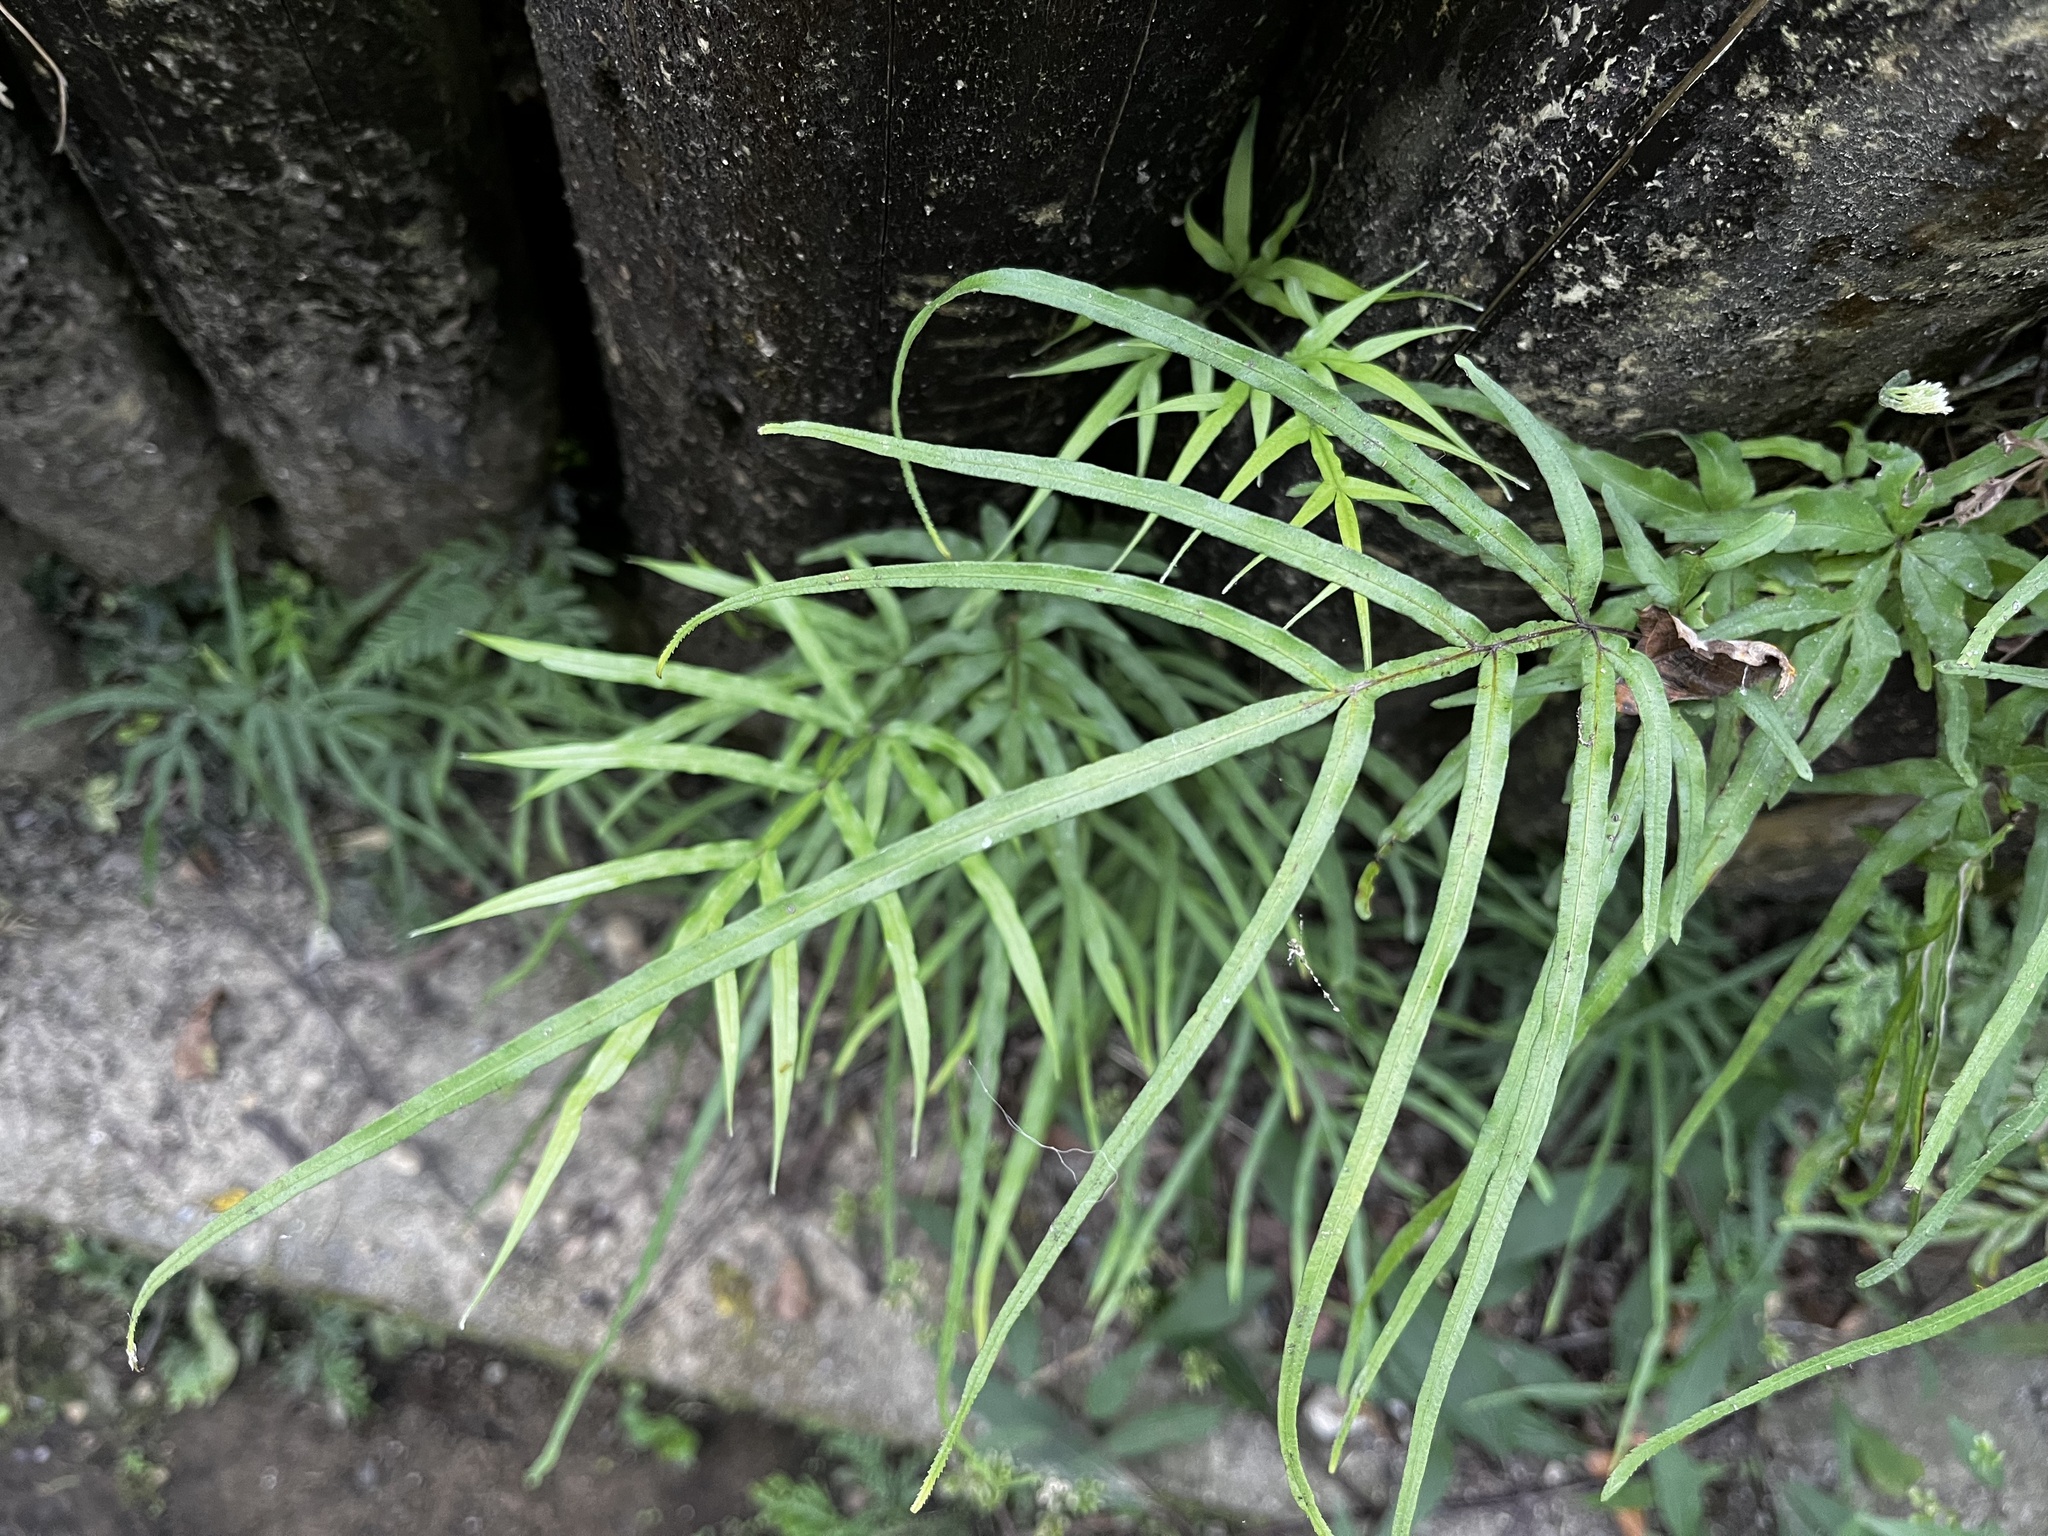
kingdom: Plantae
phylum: Tracheophyta
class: Polypodiopsida
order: Polypodiales
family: Pteridaceae
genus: Pteris
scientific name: Pteris multifida
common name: Spider brake
